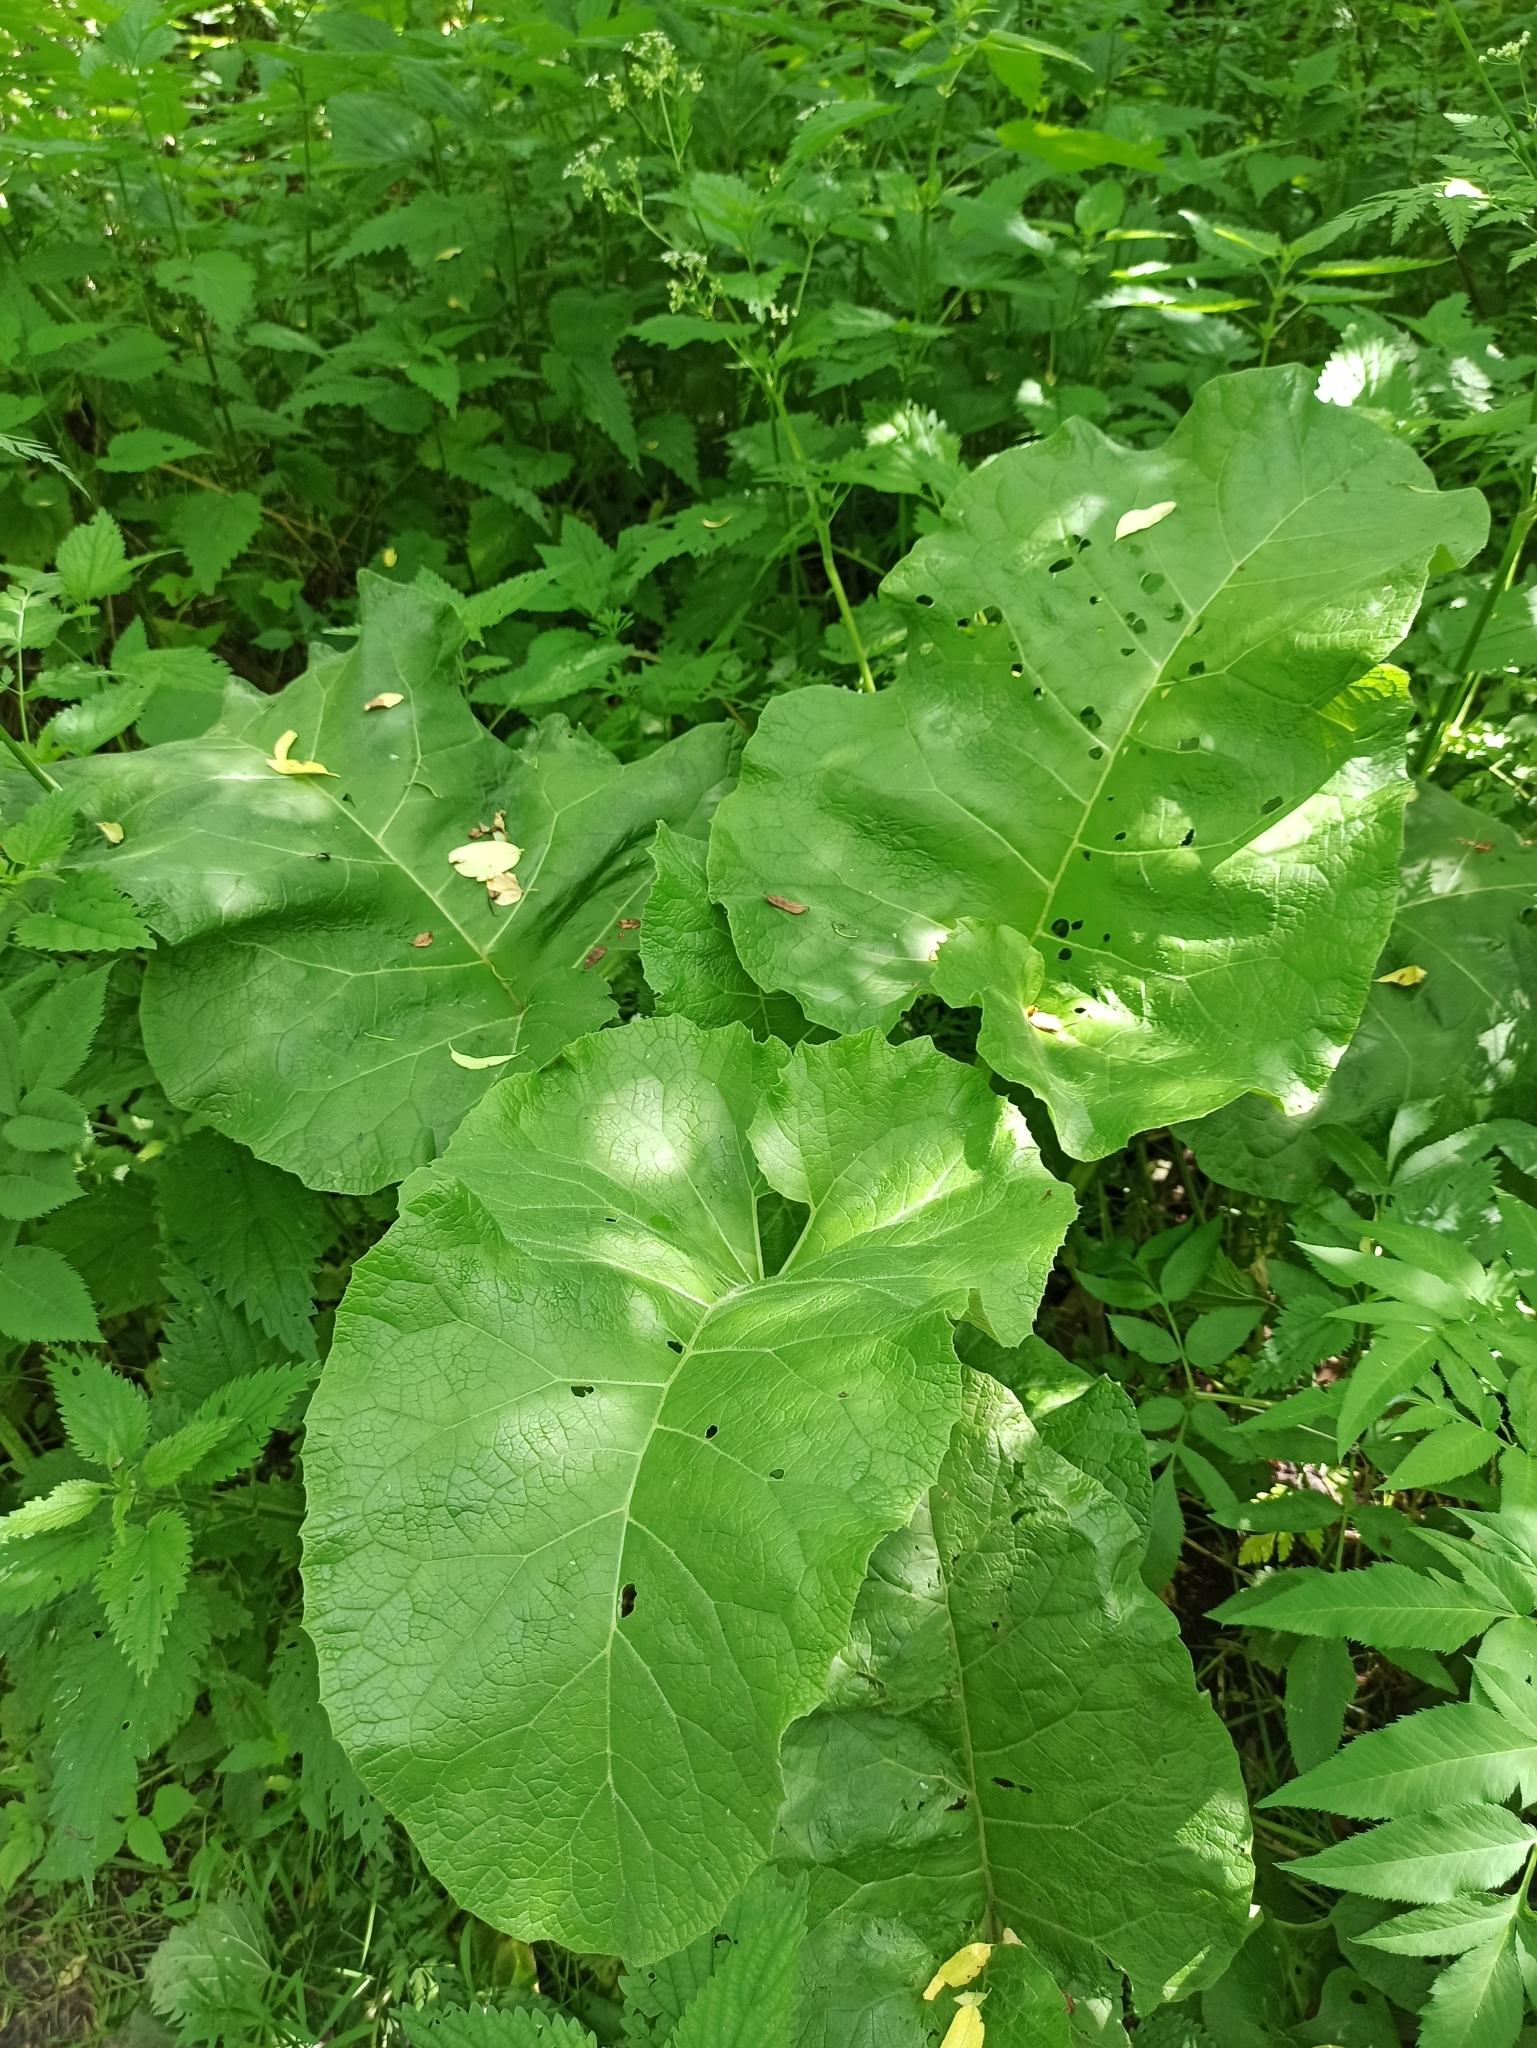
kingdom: Plantae
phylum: Tracheophyta
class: Magnoliopsida
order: Asterales
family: Asteraceae
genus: Arctium
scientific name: Arctium
